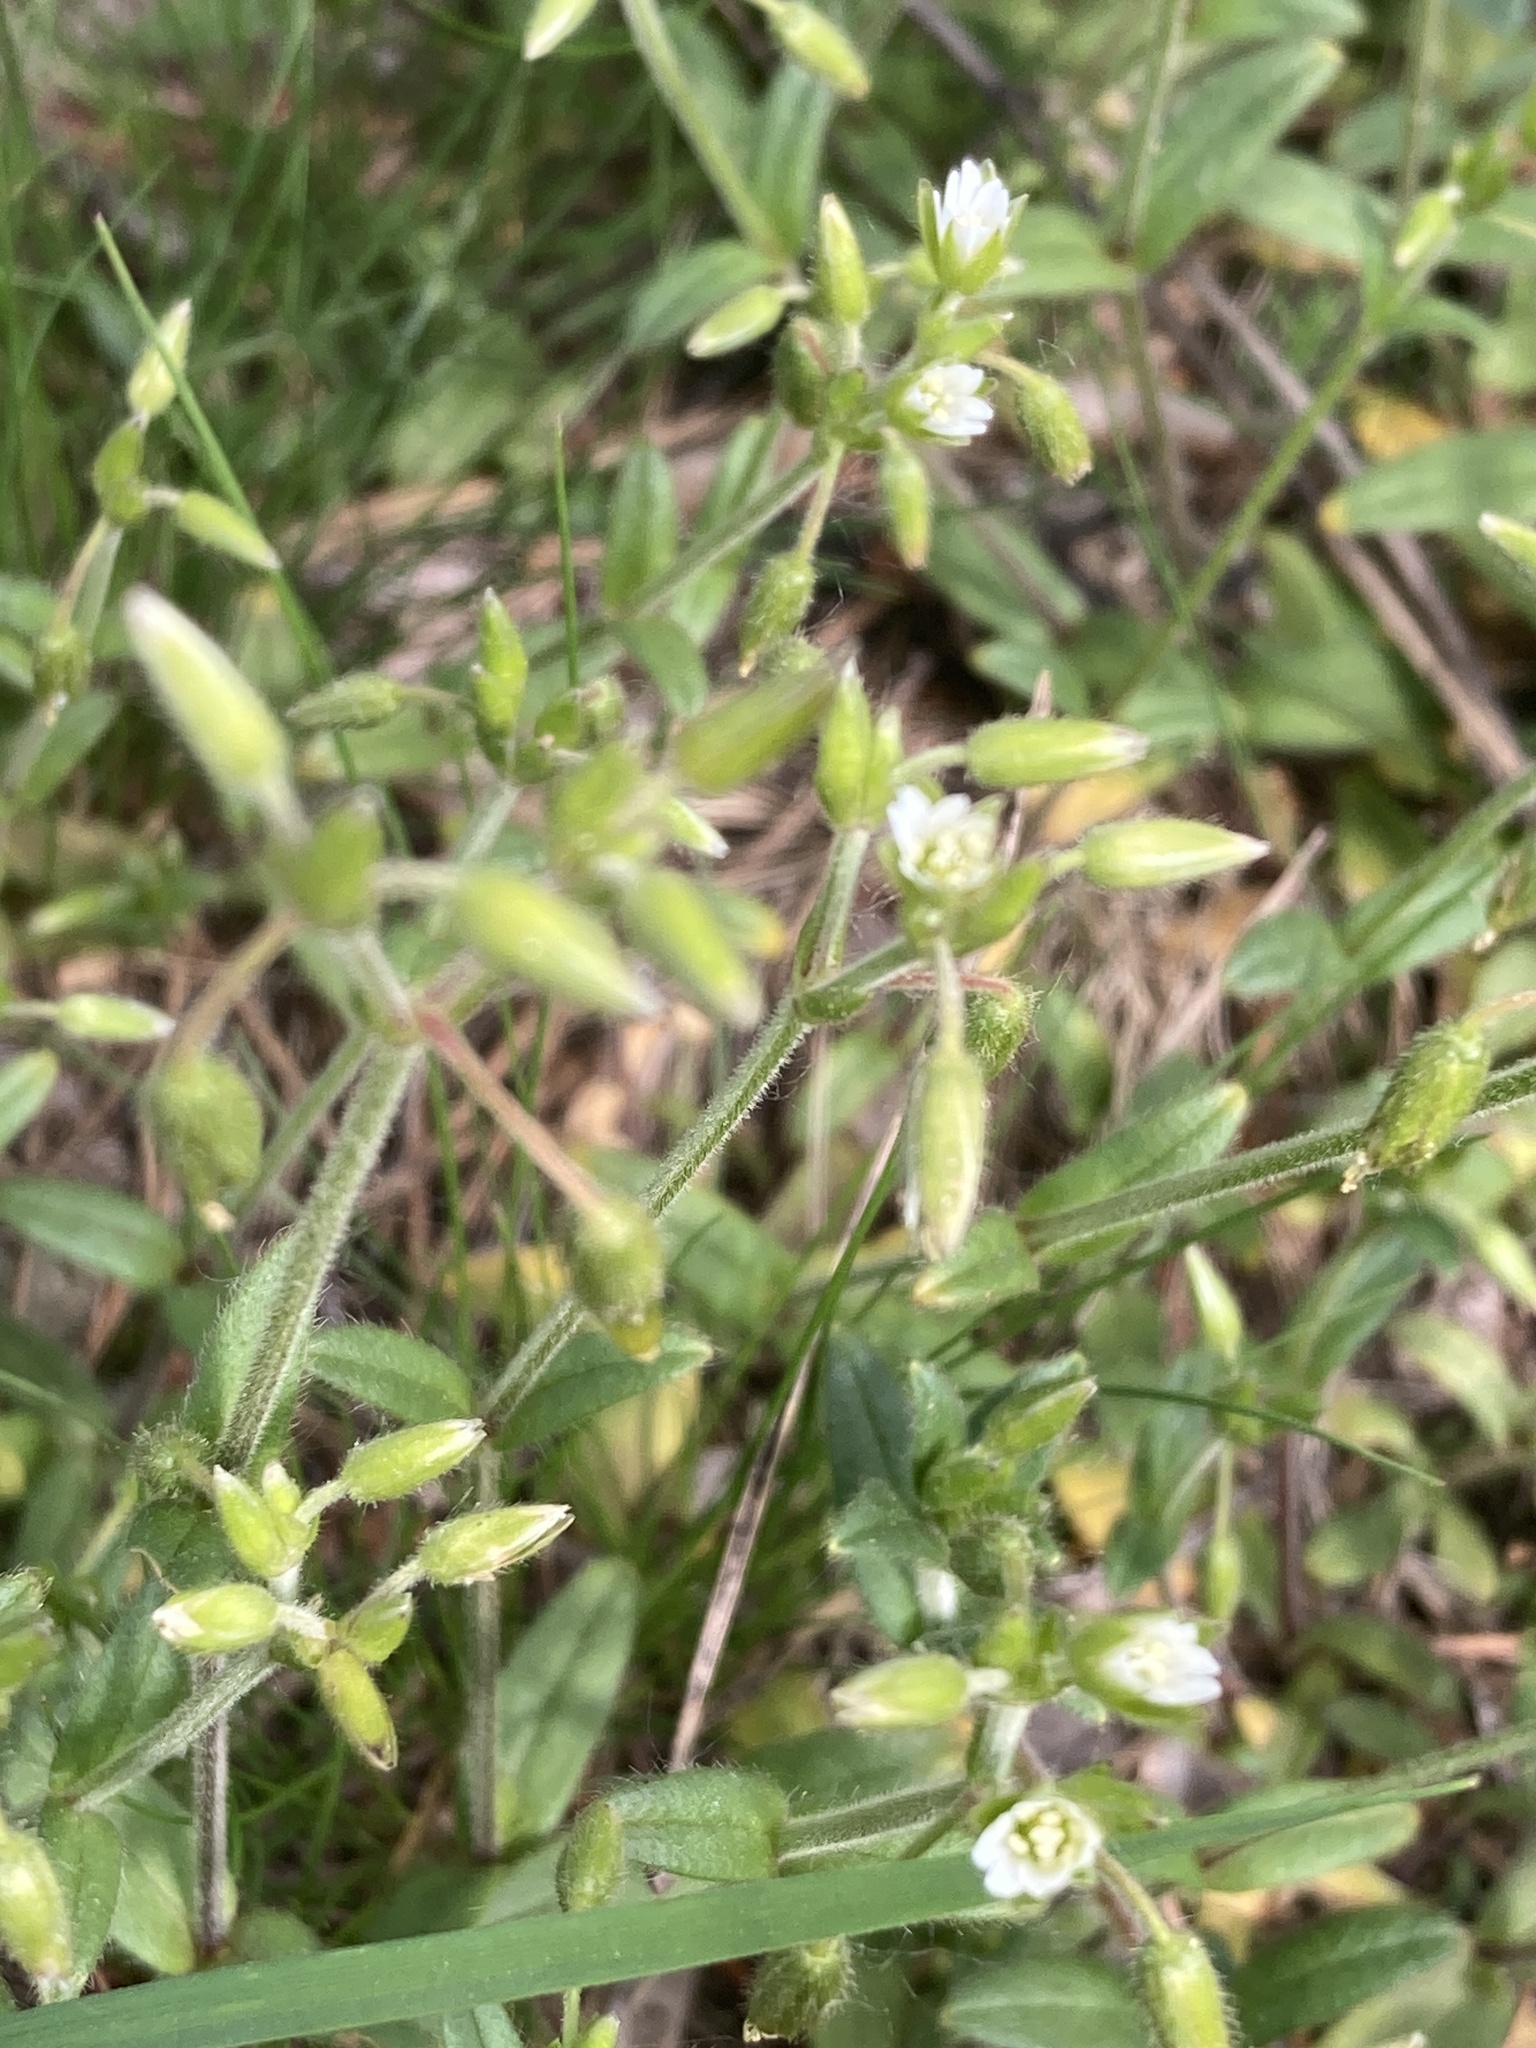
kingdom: Plantae
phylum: Tracheophyta
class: Magnoliopsida
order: Caryophyllales
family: Caryophyllaceae
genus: Cerastium
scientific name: Cerastium holosteoides
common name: Big chickweed
